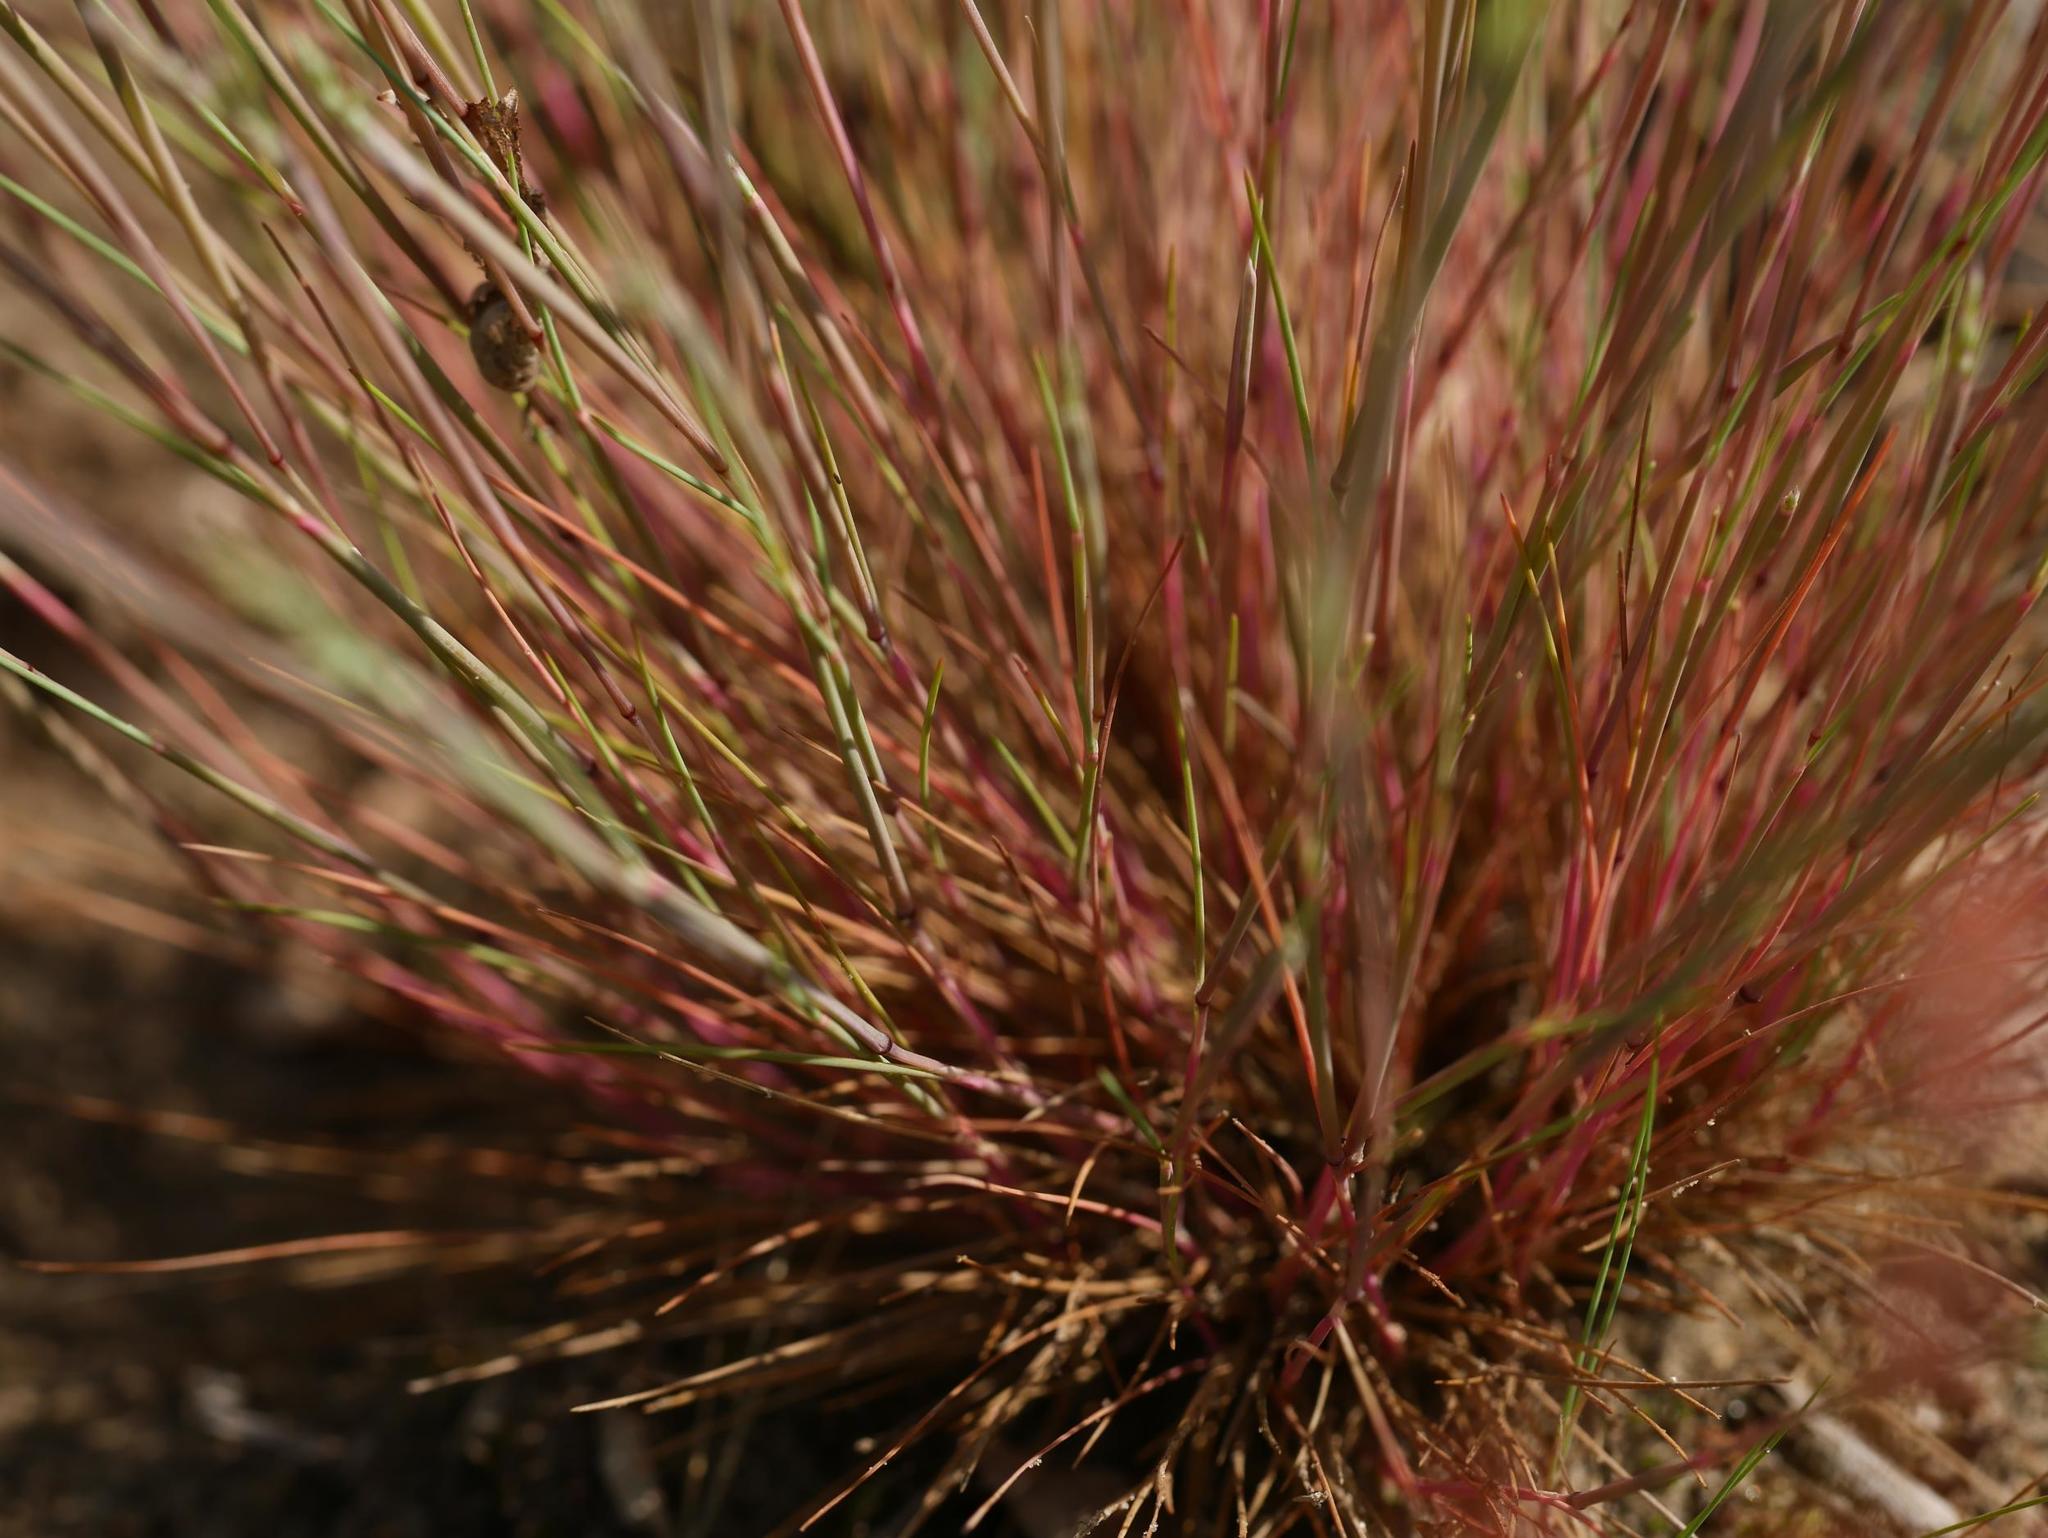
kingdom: Plantae
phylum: Tracheophyta
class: Liliopsida
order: Poales
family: Poaceae
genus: Corynephorus
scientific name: Corynephorus canescens
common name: Grey hair-grass
